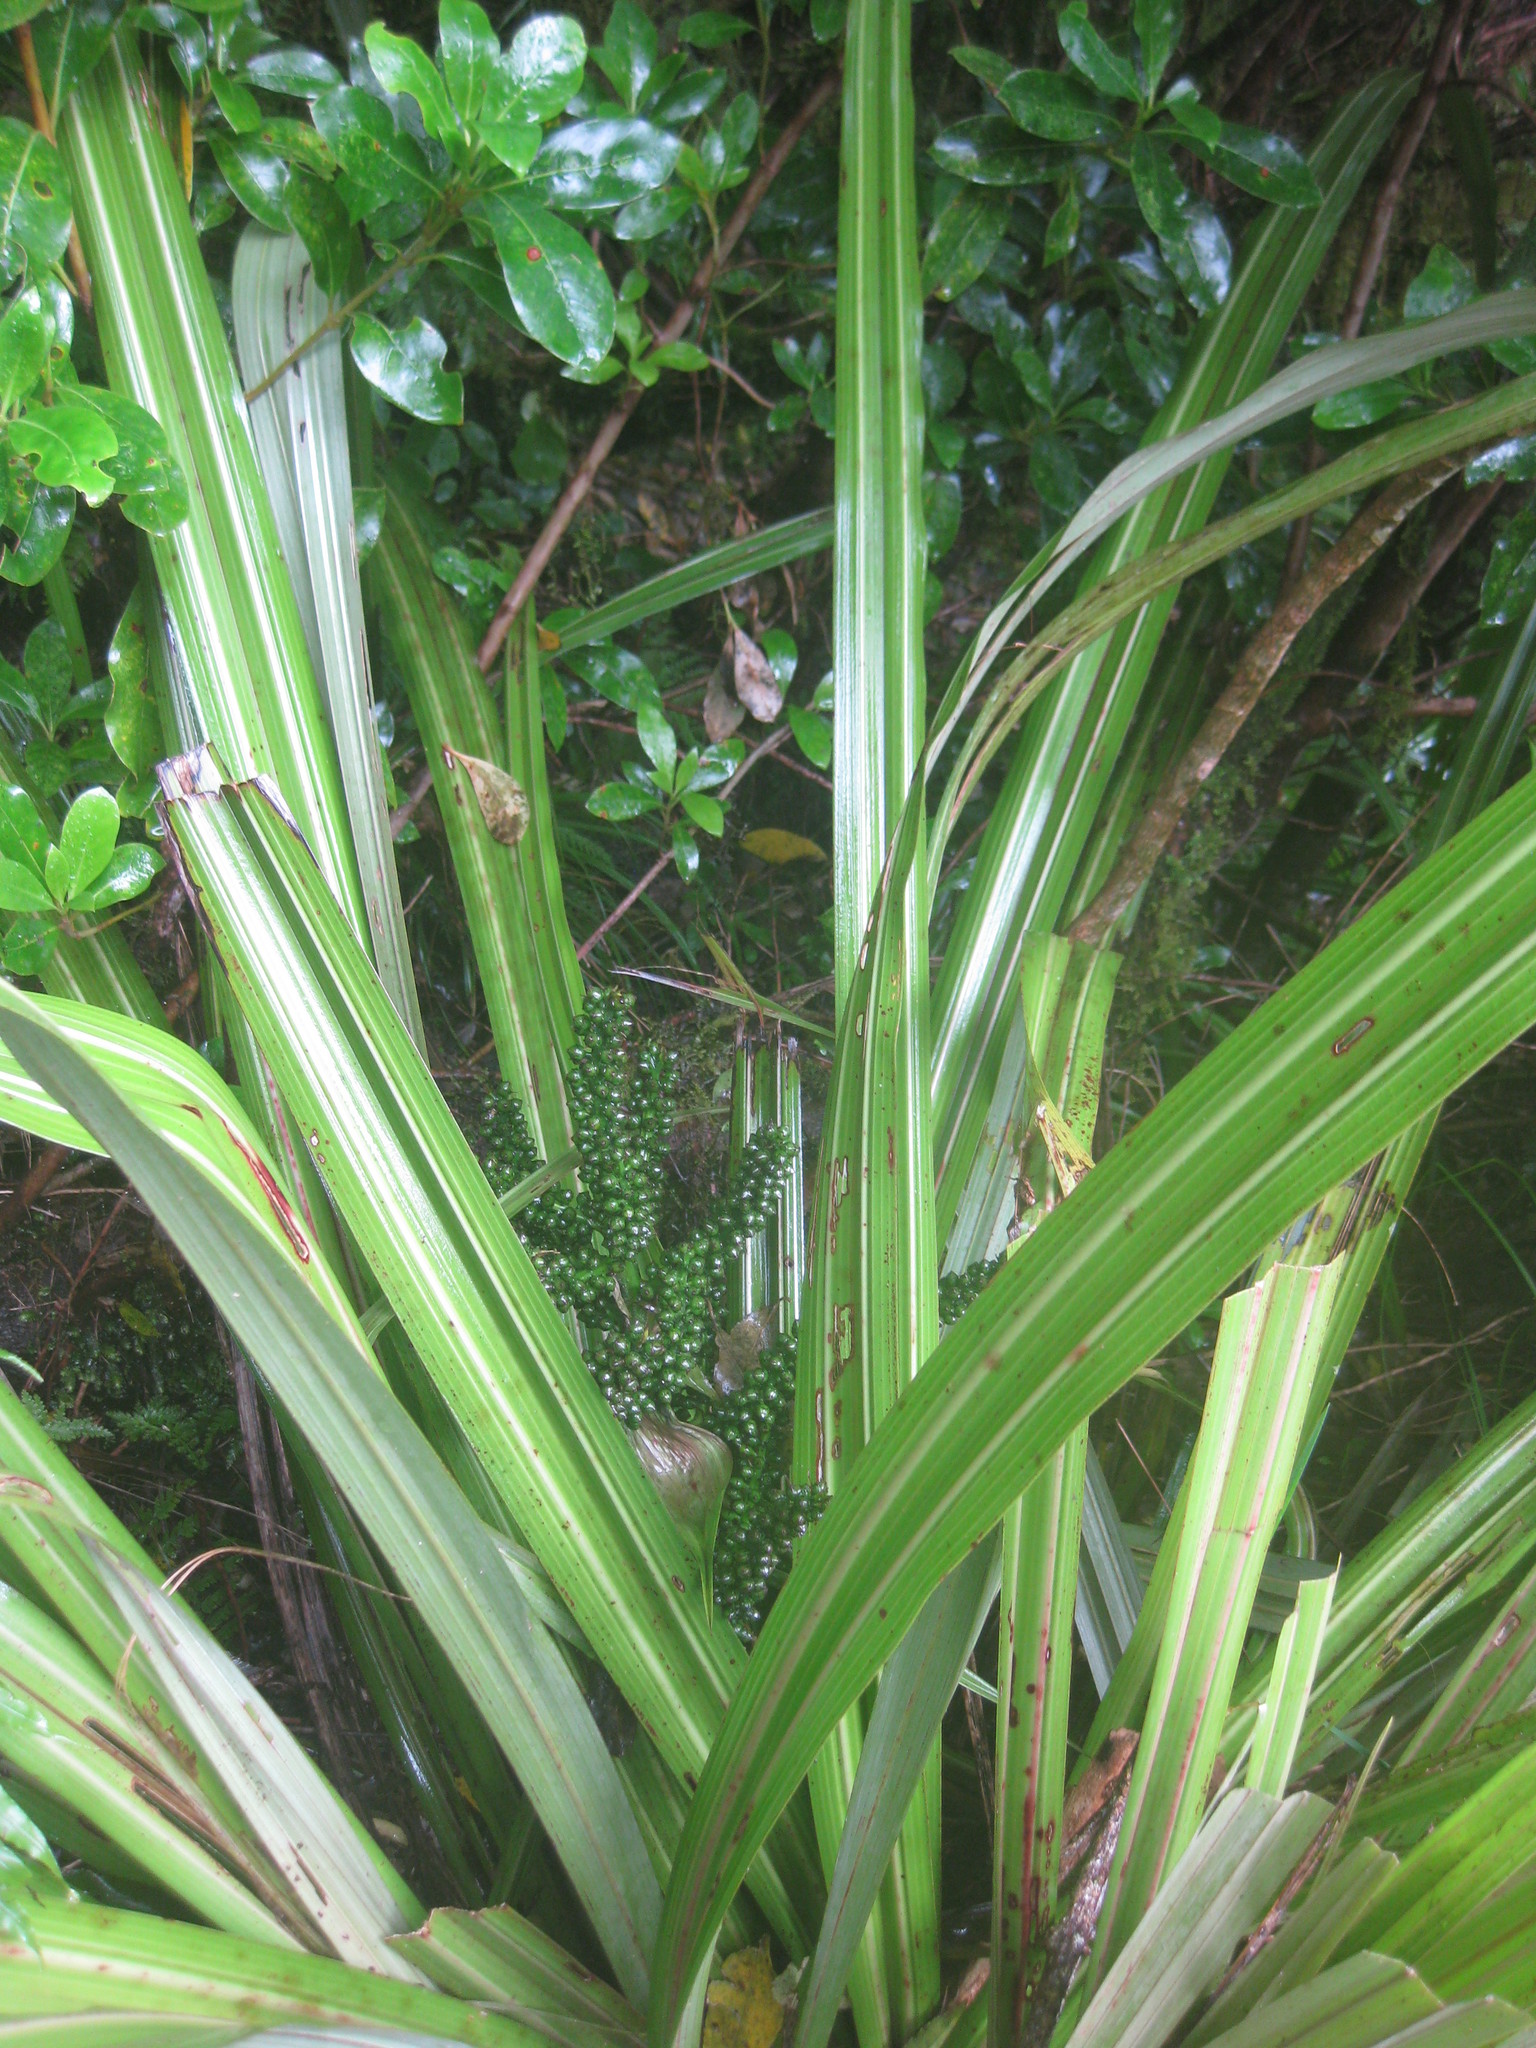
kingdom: Plantae
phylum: Tracheophyta
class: Liliopsida
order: Asparagales
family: Asteliaceae
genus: Astelia
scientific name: Astelia fragrans
